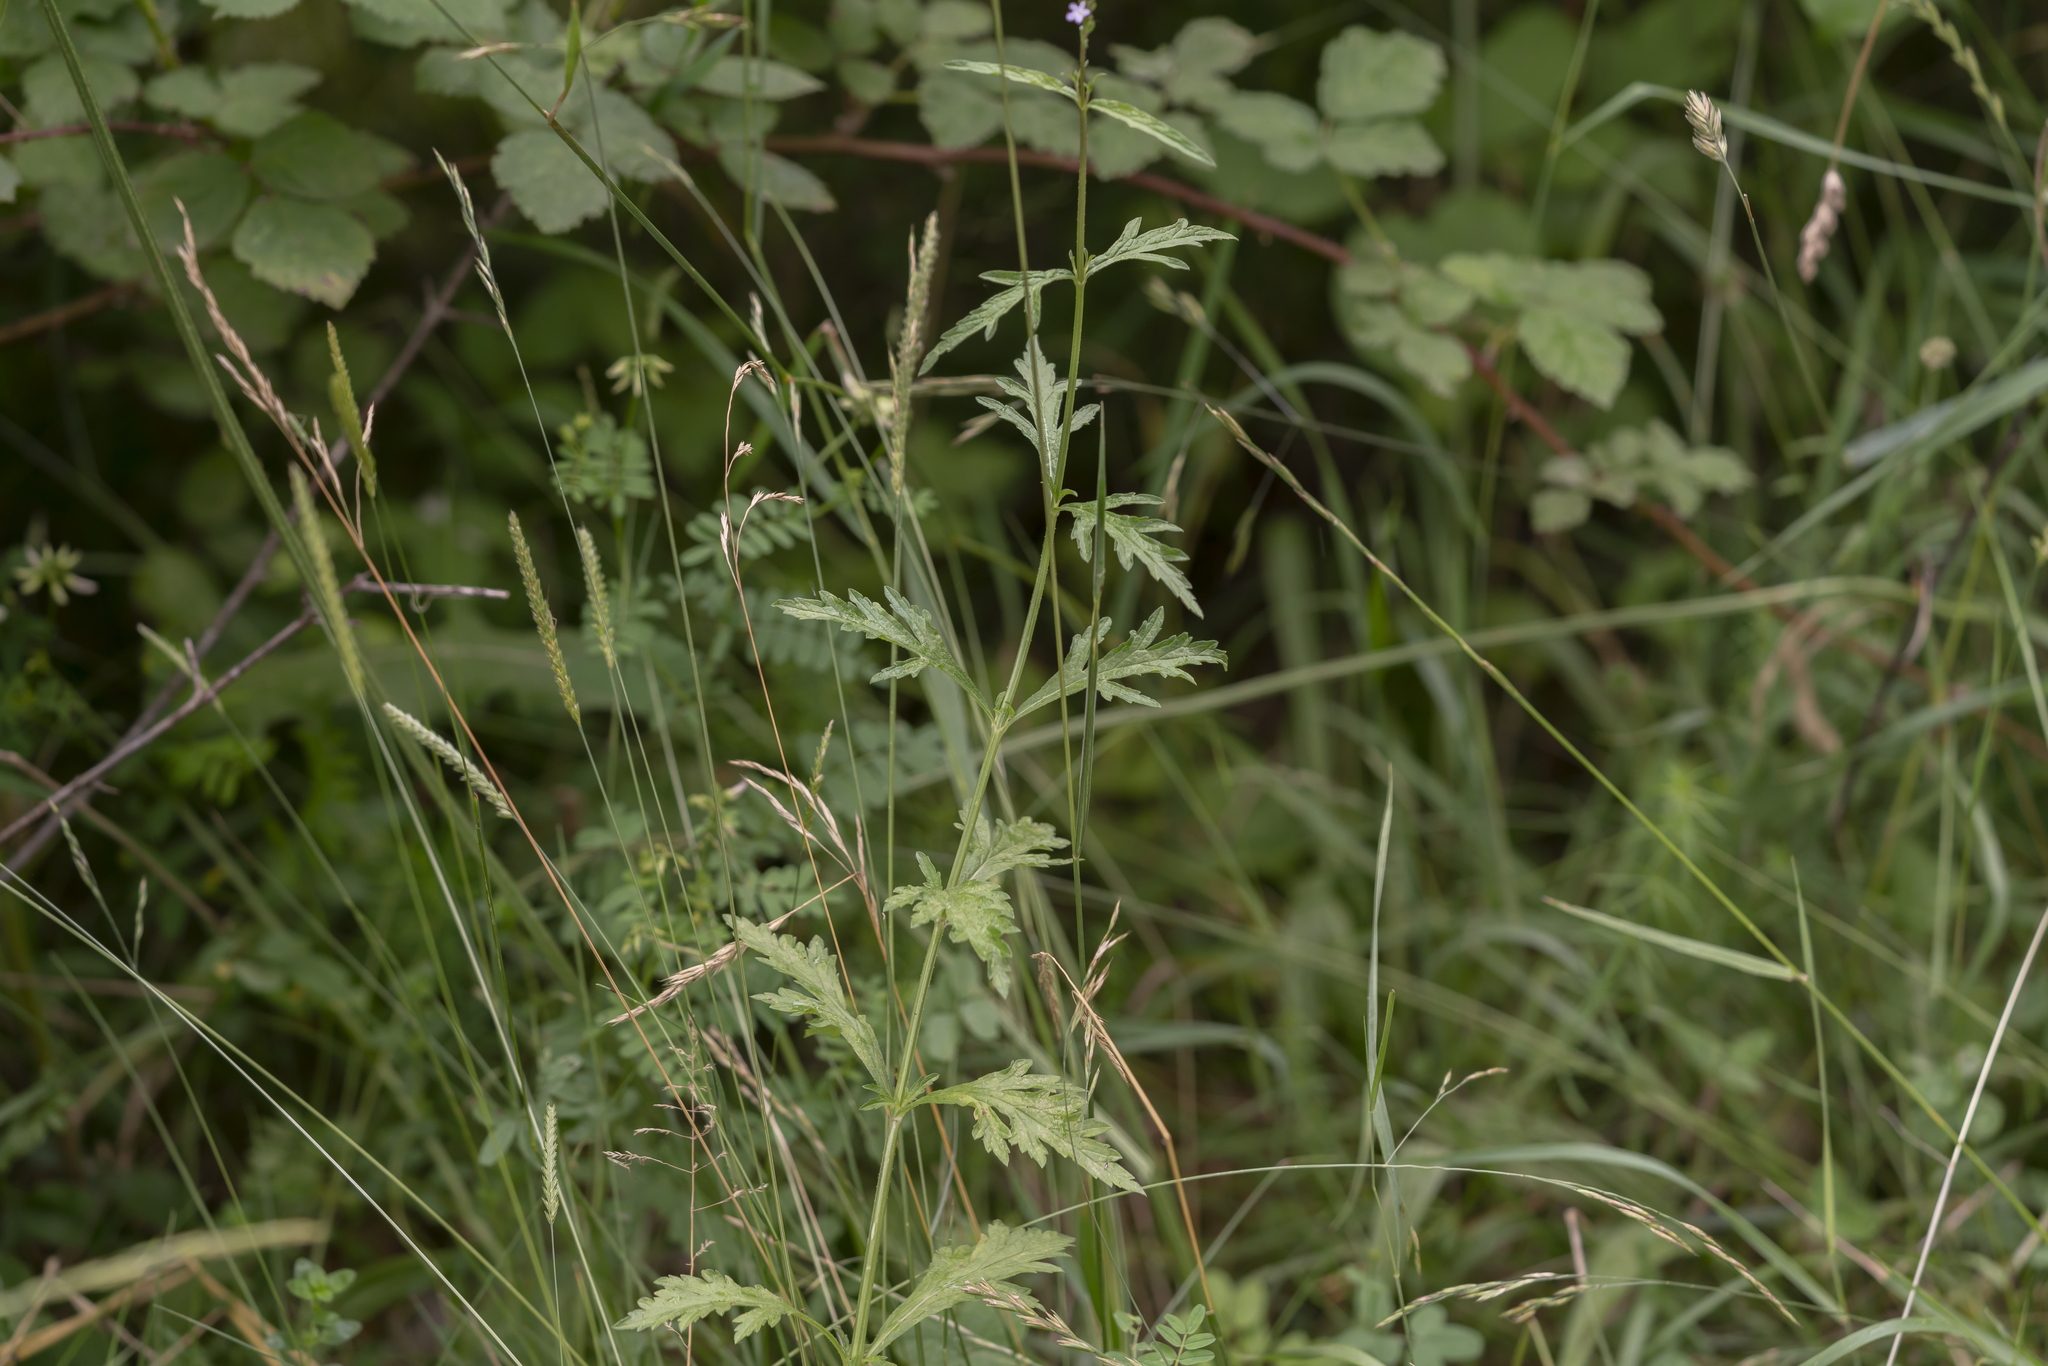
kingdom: Plantae
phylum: Tracheophyta
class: Magnoliopsida
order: Lamiales
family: Verbenaceae
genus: Verbena
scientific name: Verbena officinalis
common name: Vervain
